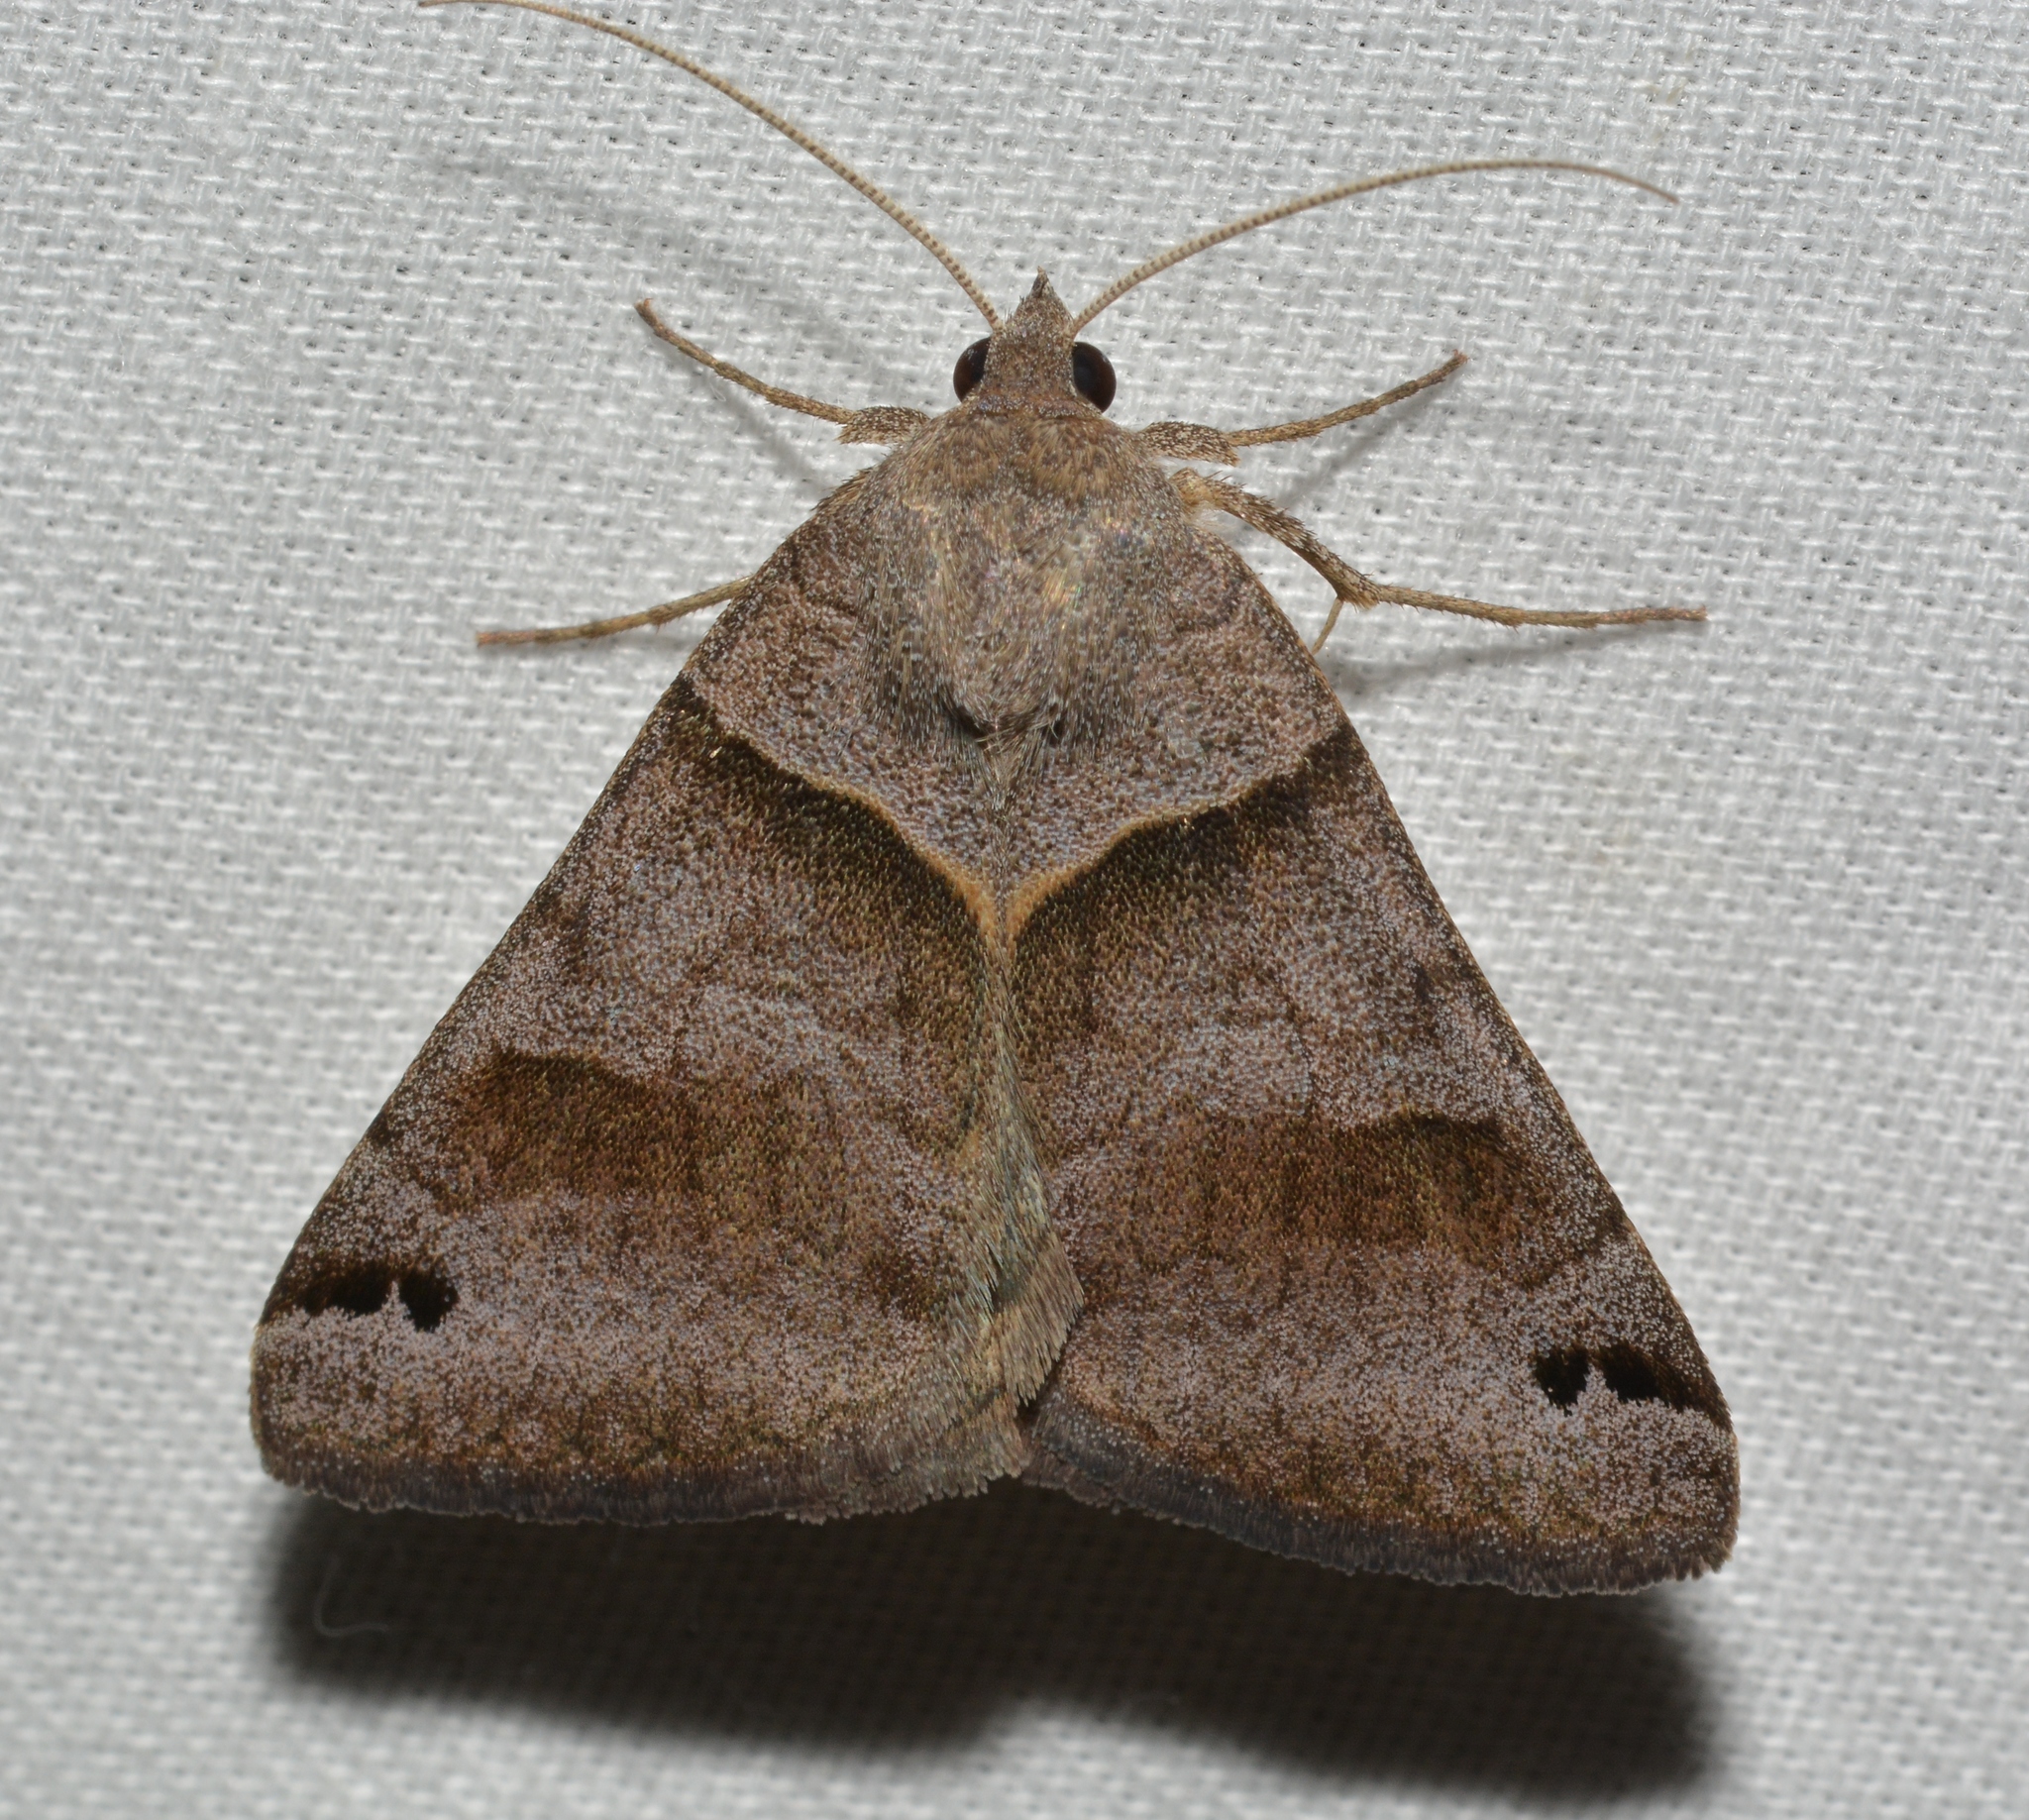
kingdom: Animalia
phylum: Arthropoda
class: Insecta
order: Lepidoptera
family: Erebidae
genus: Caenurgina
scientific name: Caenurgina crassiuscula
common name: Double-barred
